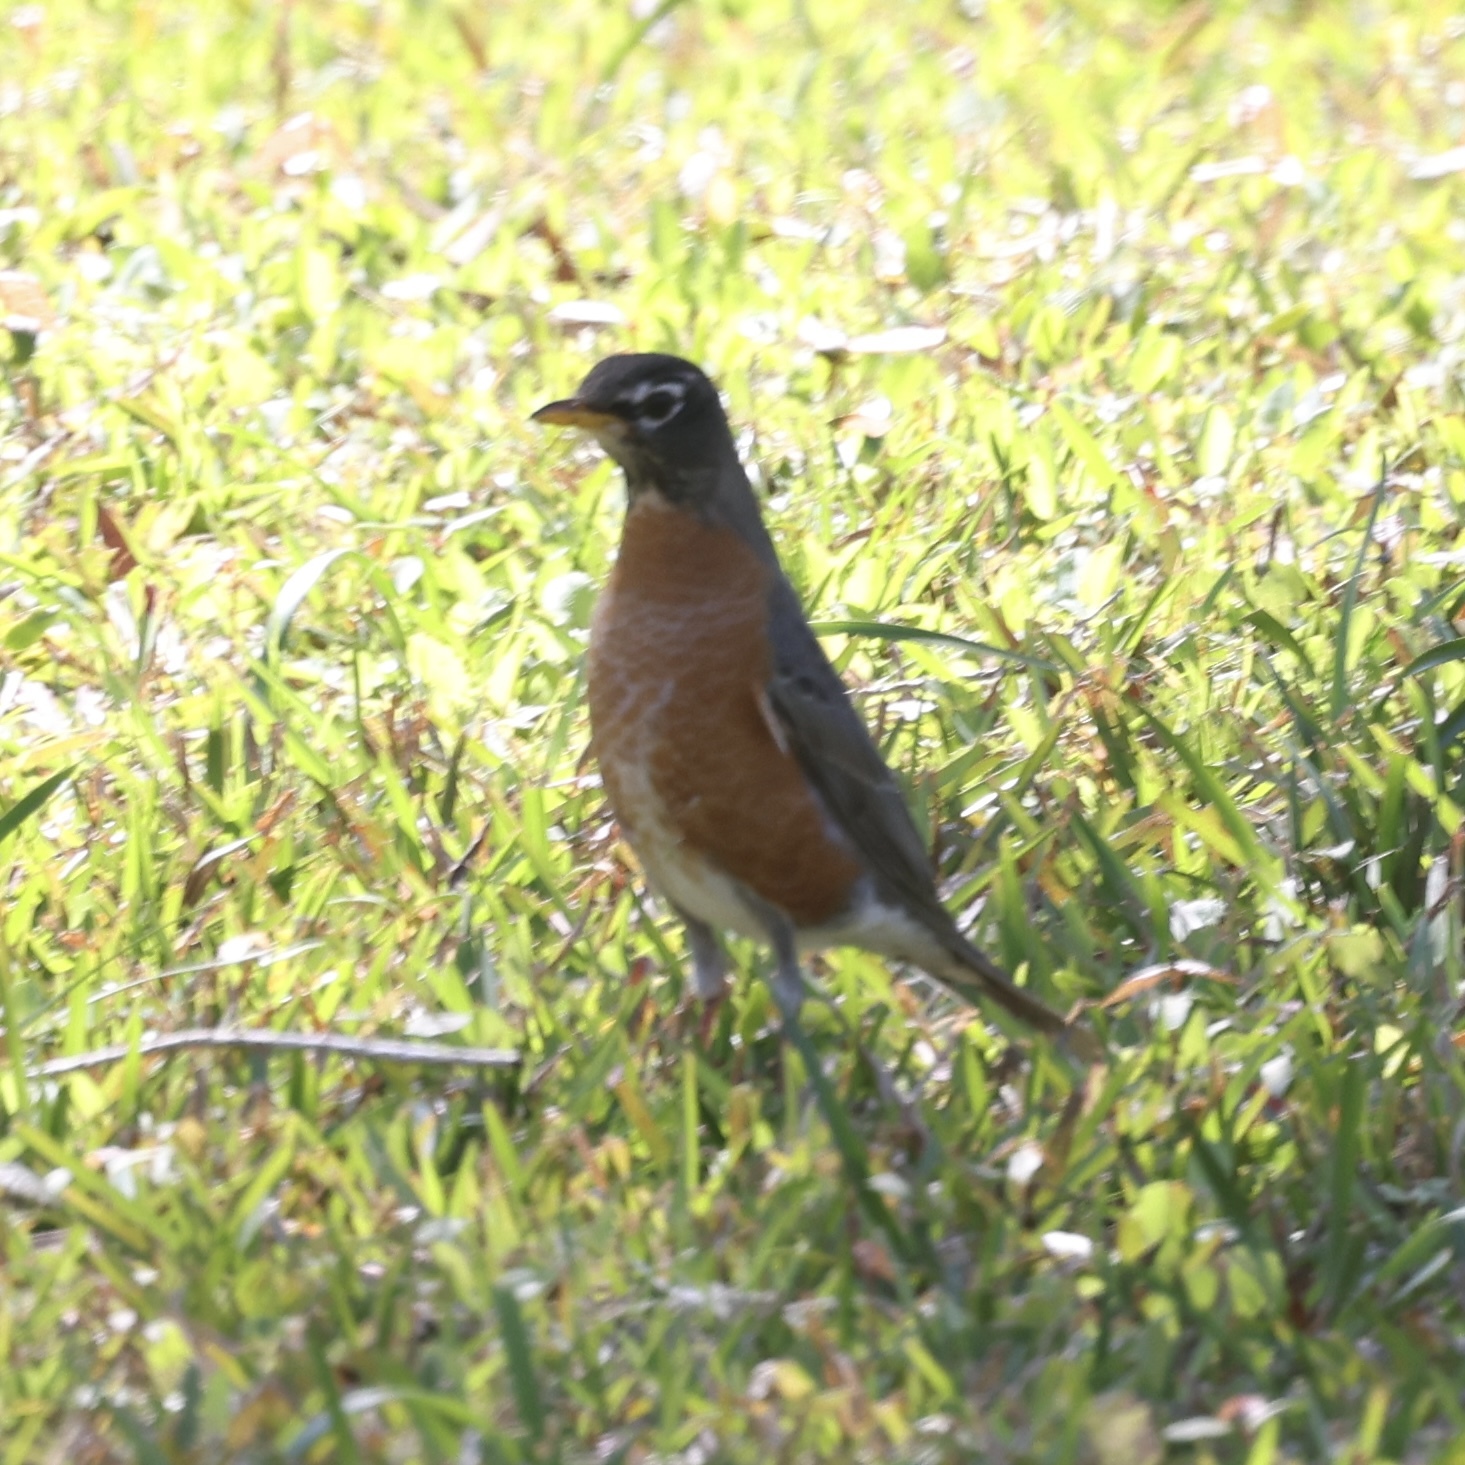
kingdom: Animalia
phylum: Chordata
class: Aves
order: Passeriformes
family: Turdidae
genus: Turdus
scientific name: Turdus migratorius
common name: American robin
